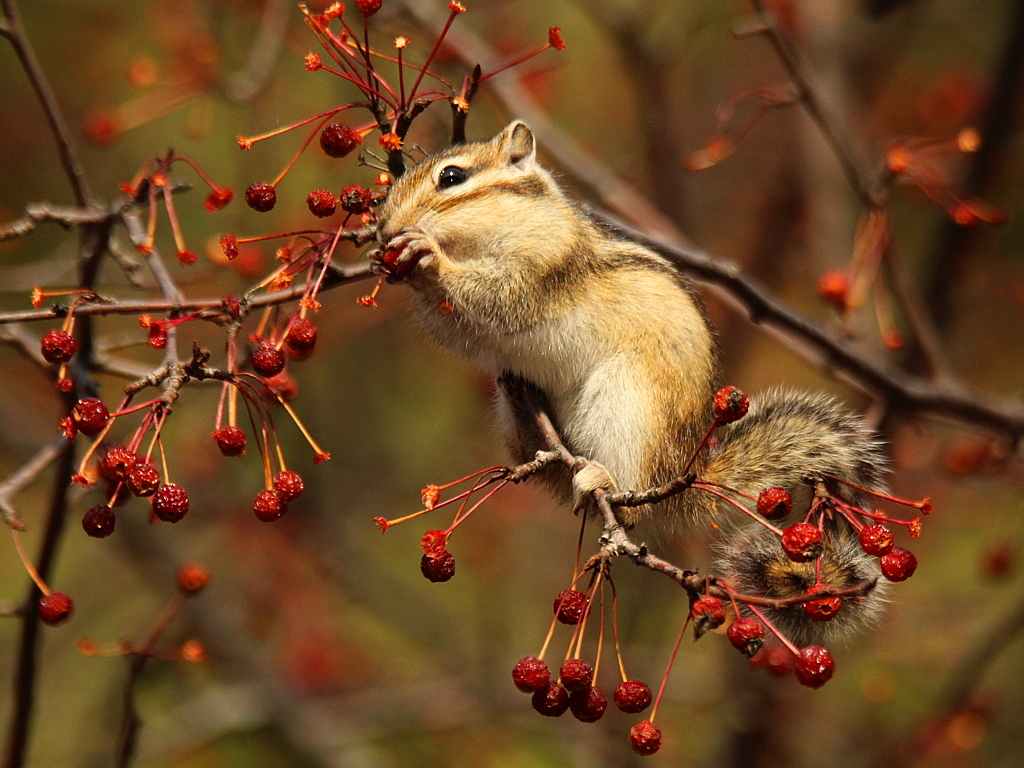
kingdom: Animalia
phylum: Chordata
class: Mammalia
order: Rodentia
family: Sciuridae
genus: Tamias
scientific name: Tamias sibiricus
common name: Siberian chipmunk
